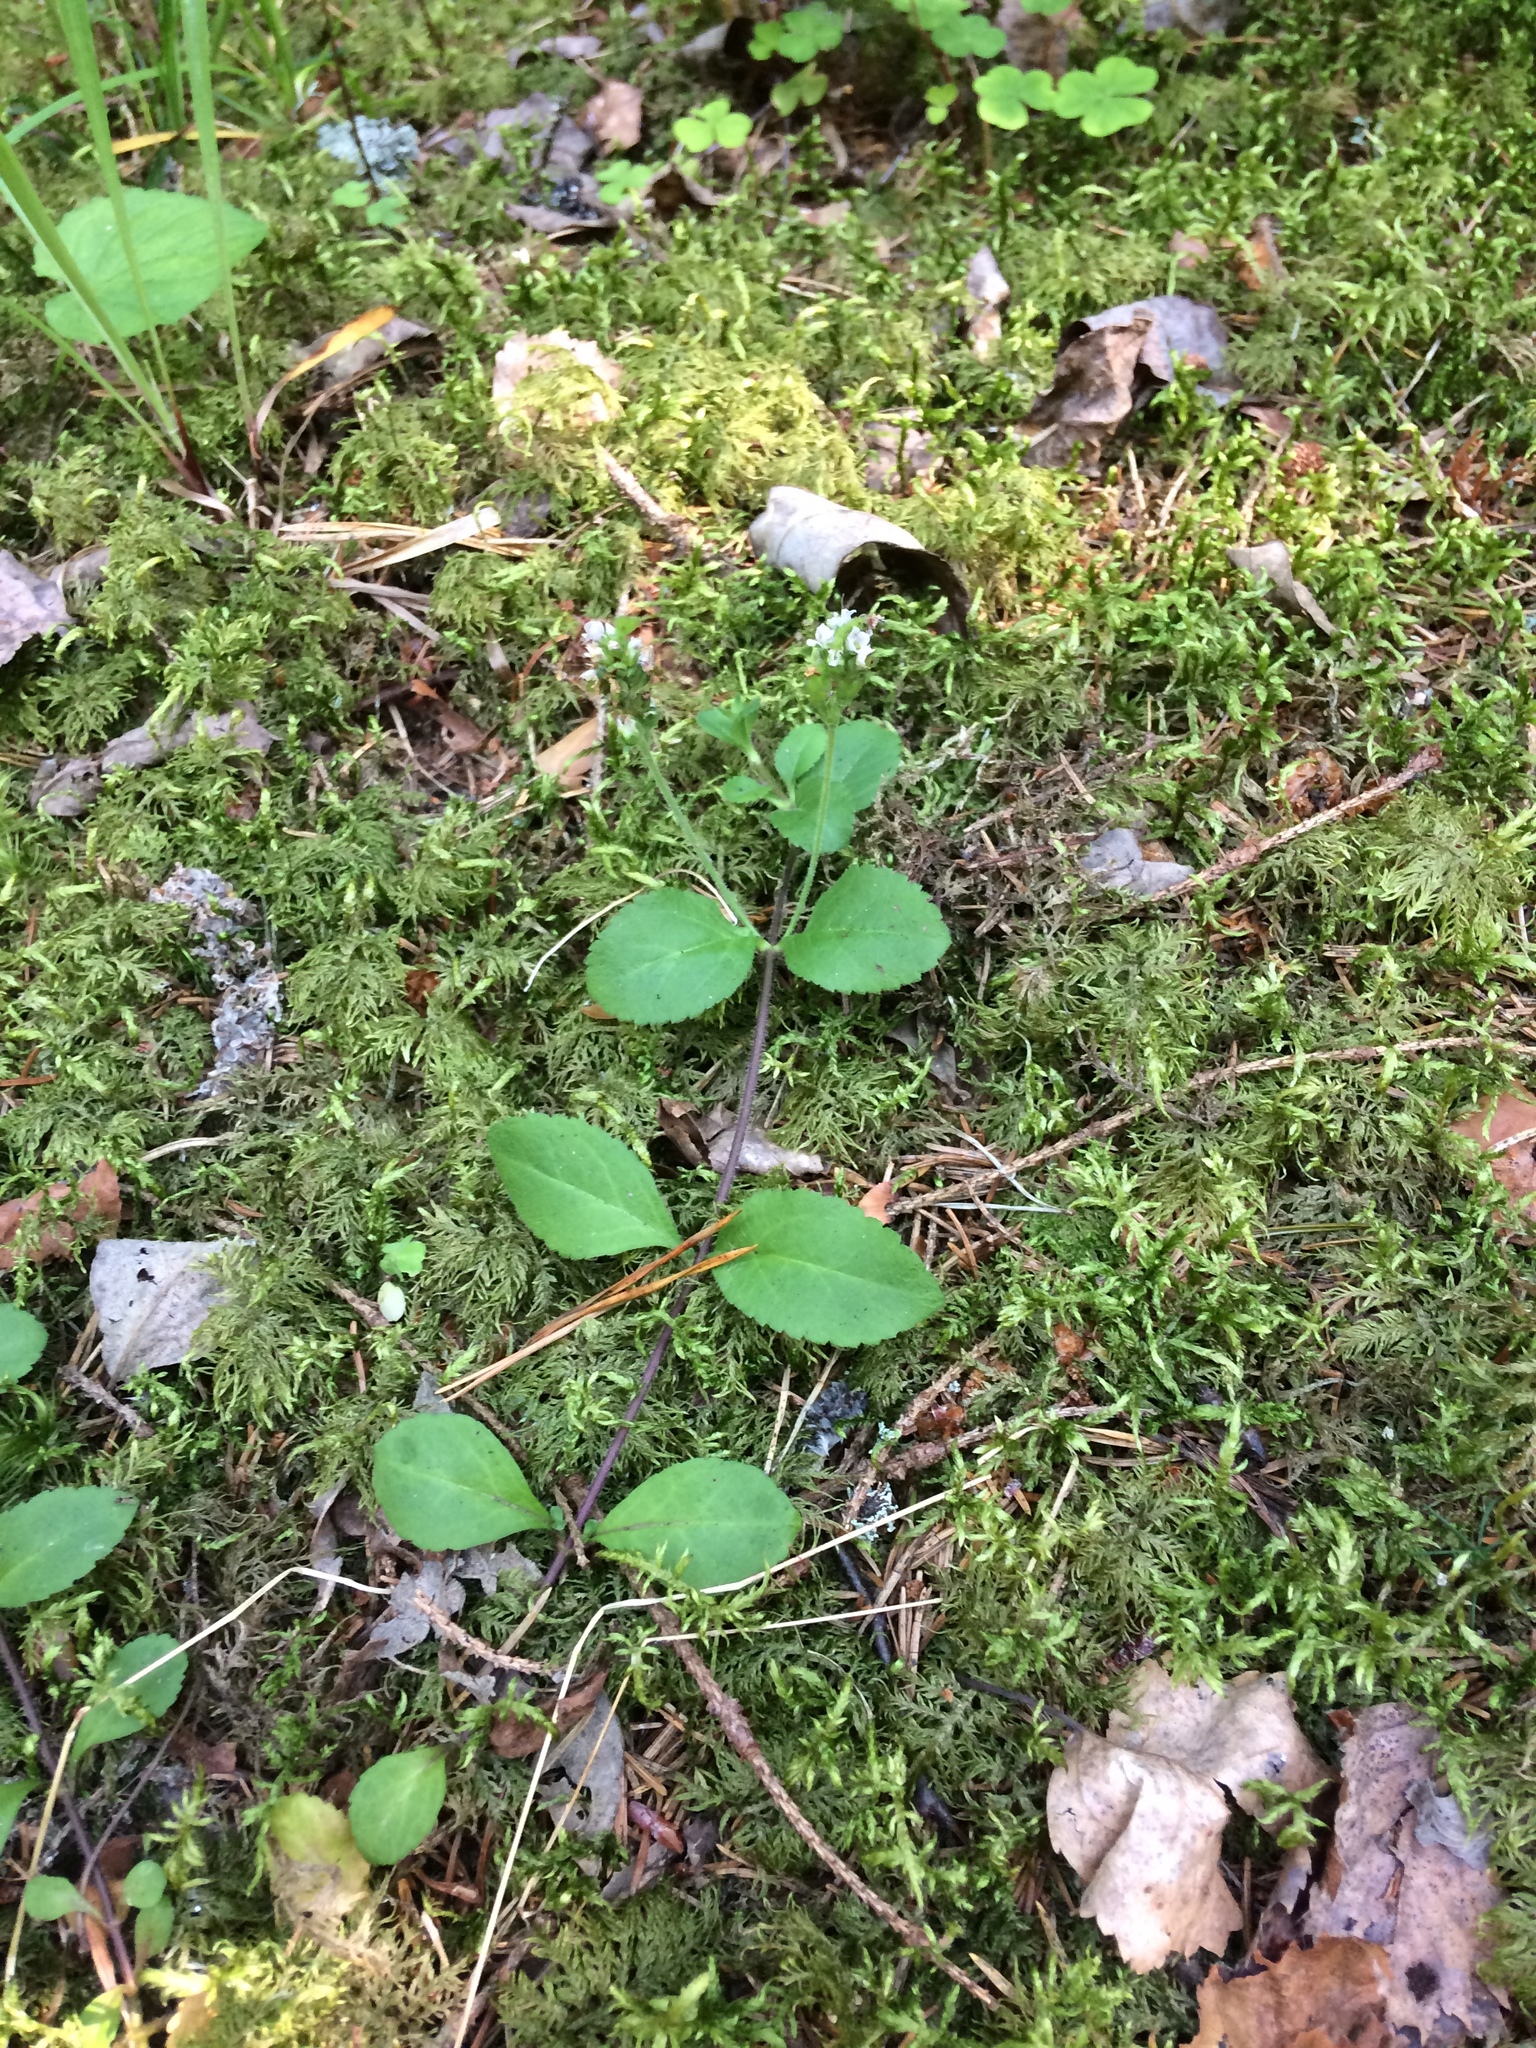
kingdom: Plantae
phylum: Tracheophyta
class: Magnoliopsida
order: Lamiales
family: Plantaginaceae
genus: Veronica
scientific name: Veronica officinalis
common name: Common speedwell
